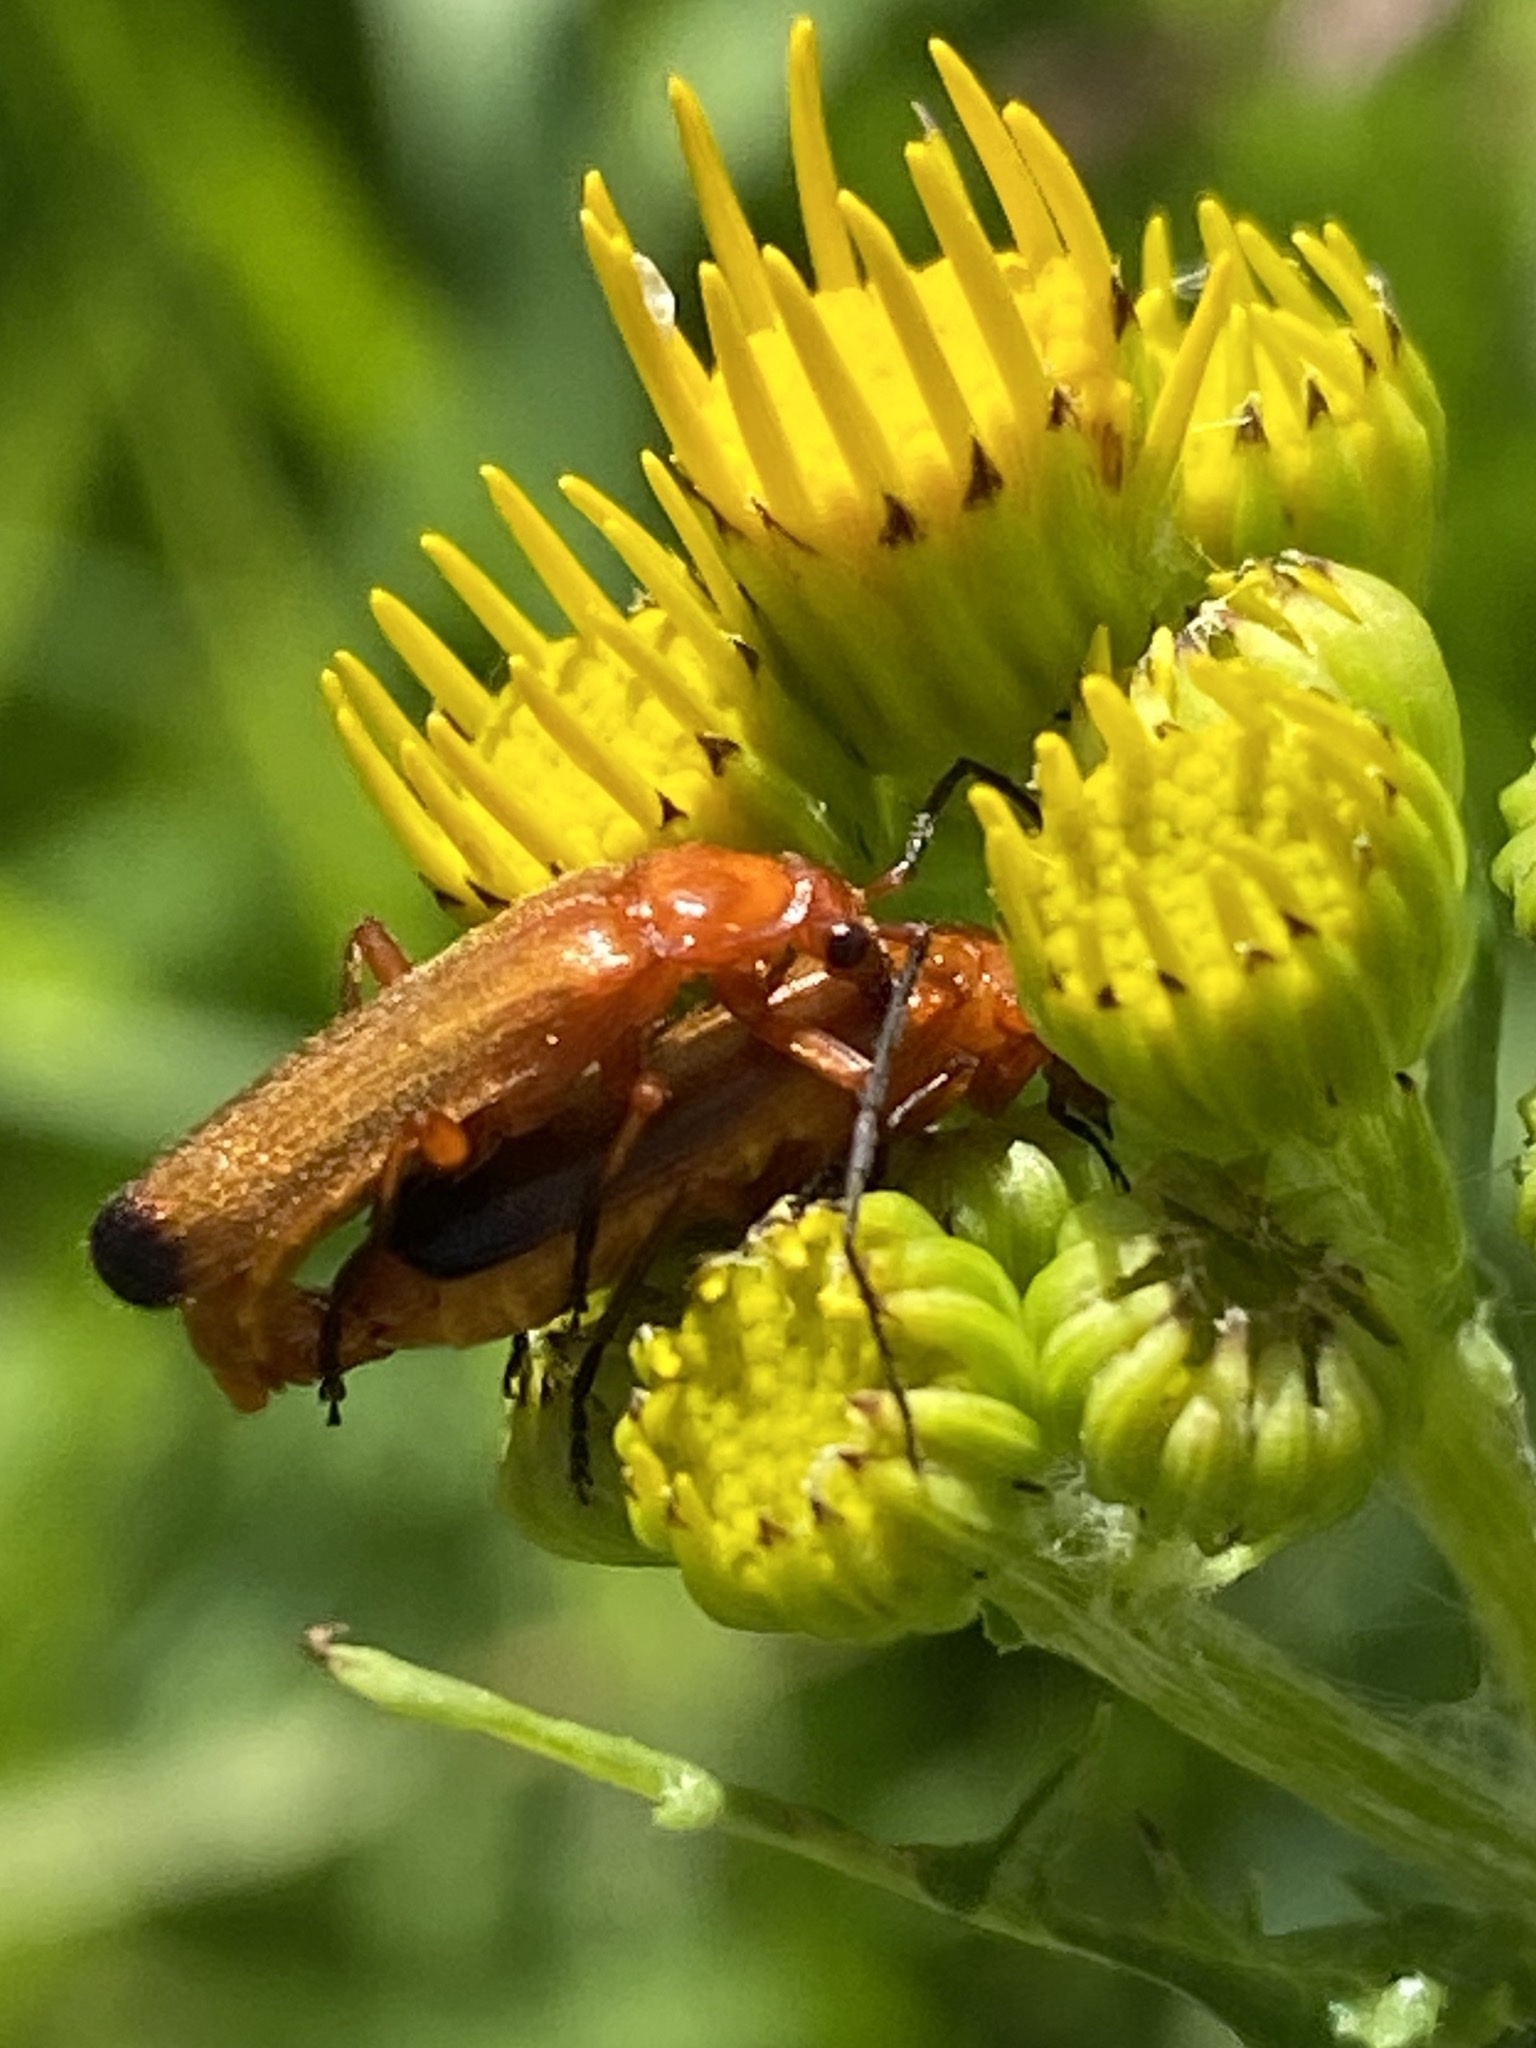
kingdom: Animalia
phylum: Arthropoda
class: Insecta
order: Coleoptera
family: Cantharidae
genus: Rhagonycha
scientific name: Rhagonycha fulva
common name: Common red soldier beetle
